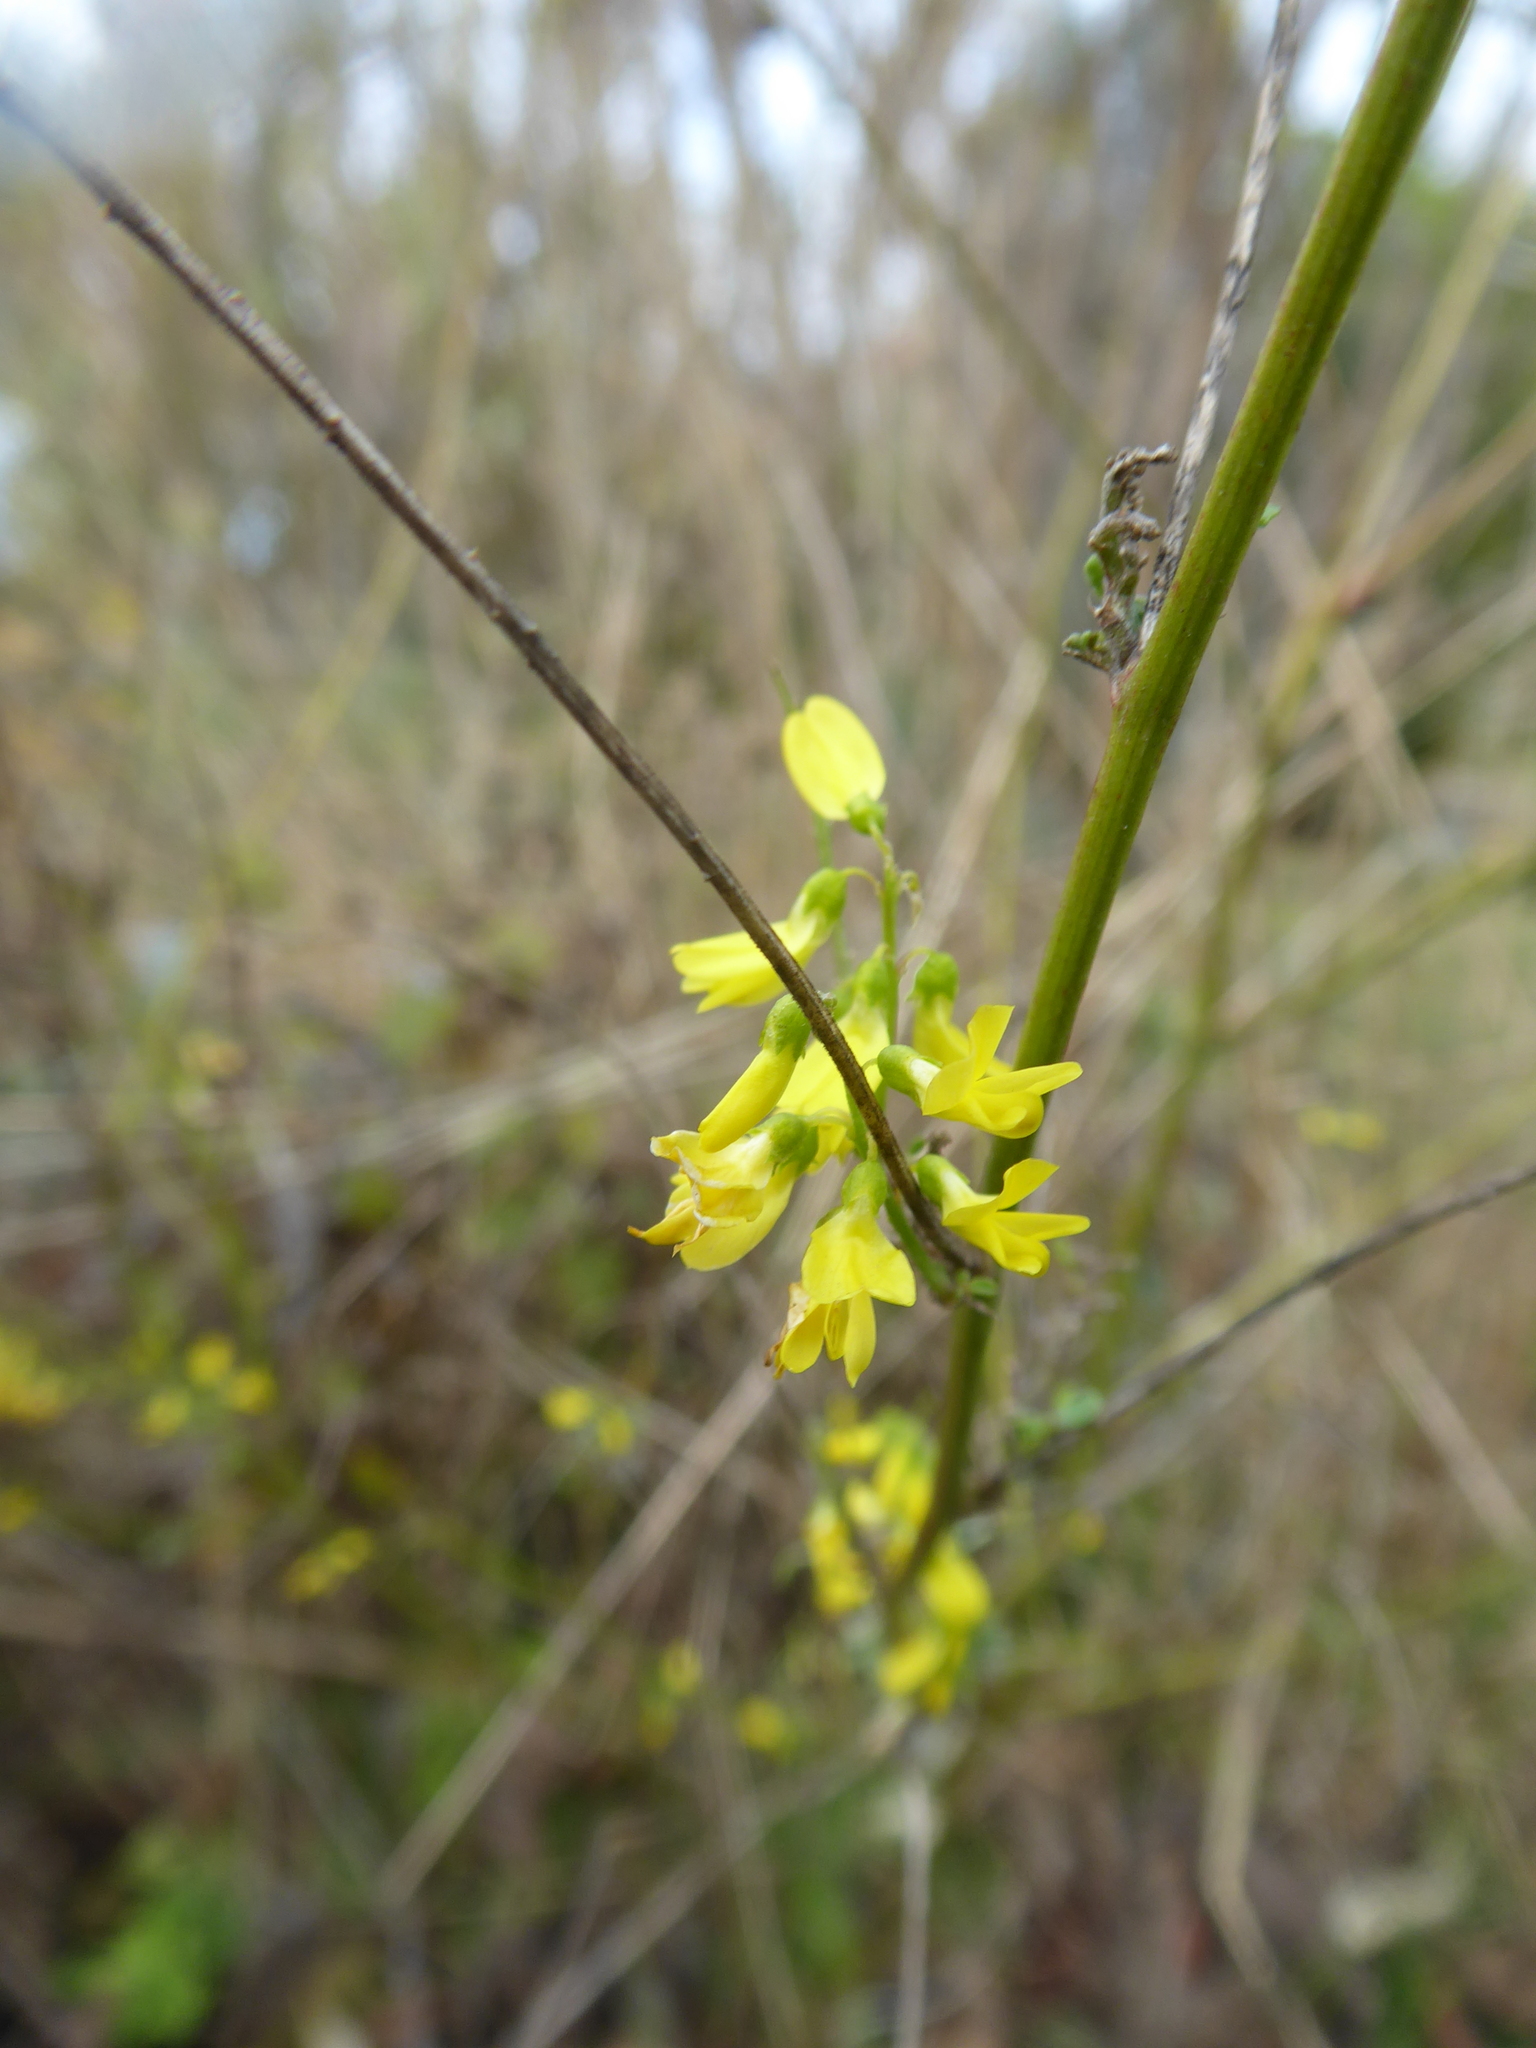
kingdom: Plantae
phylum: Tracheophyta
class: Magnoliopsida
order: Fabales
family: Fabaceae
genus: Melilotus
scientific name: Melilotus officinalis
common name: Sweetclover
